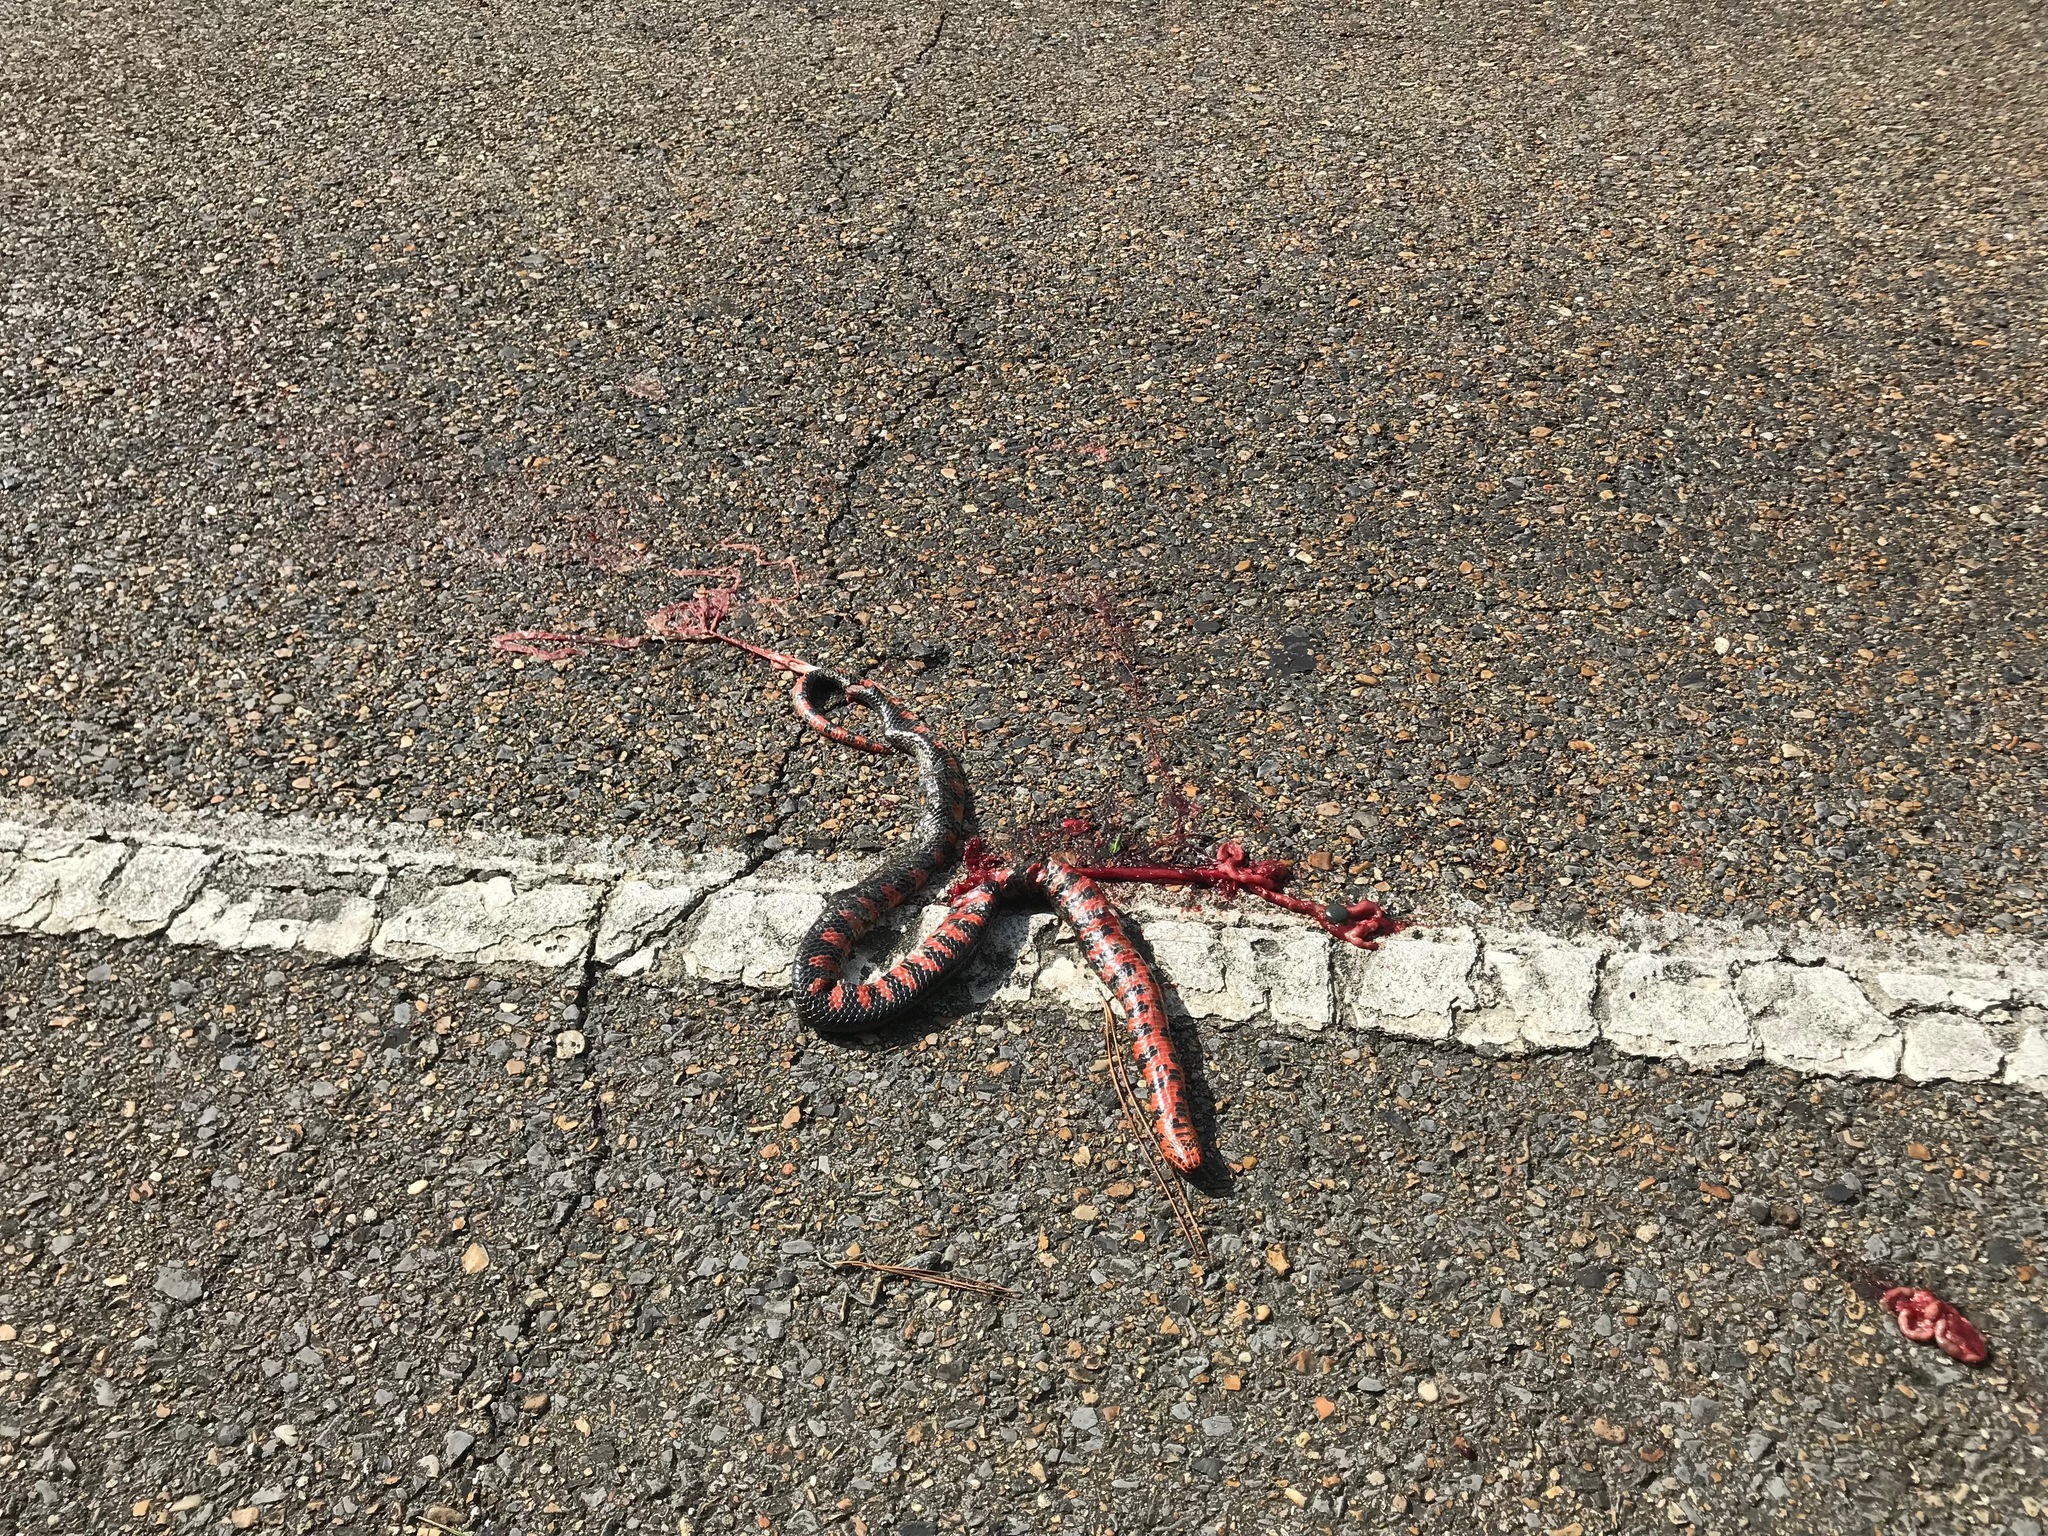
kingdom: Animalia
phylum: Chordata
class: Squamata
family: Colubridae
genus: Farancia
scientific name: Farancia abacura
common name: Mud snake
